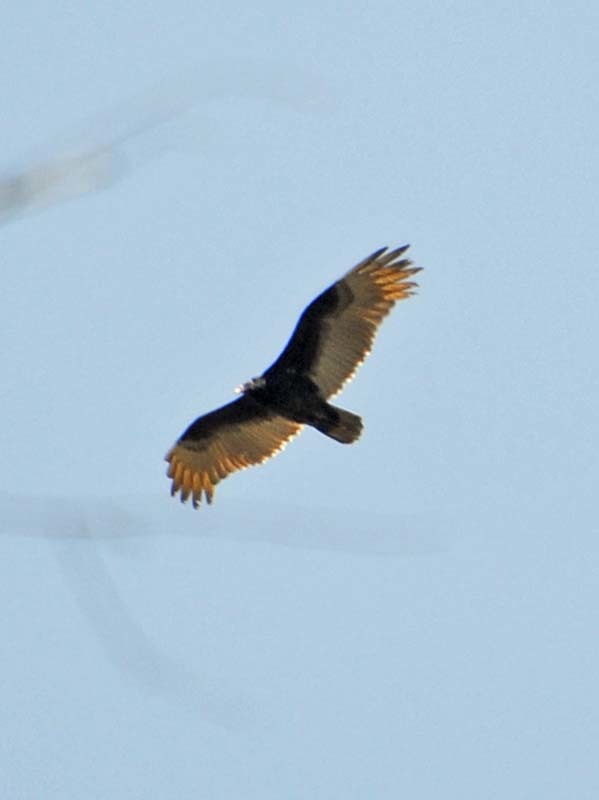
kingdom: Animalia
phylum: Chordata
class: Aves
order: Accipitriformes
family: Cathartidae
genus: Cathartes
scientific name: Cathartes aura
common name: Turkey vulture
